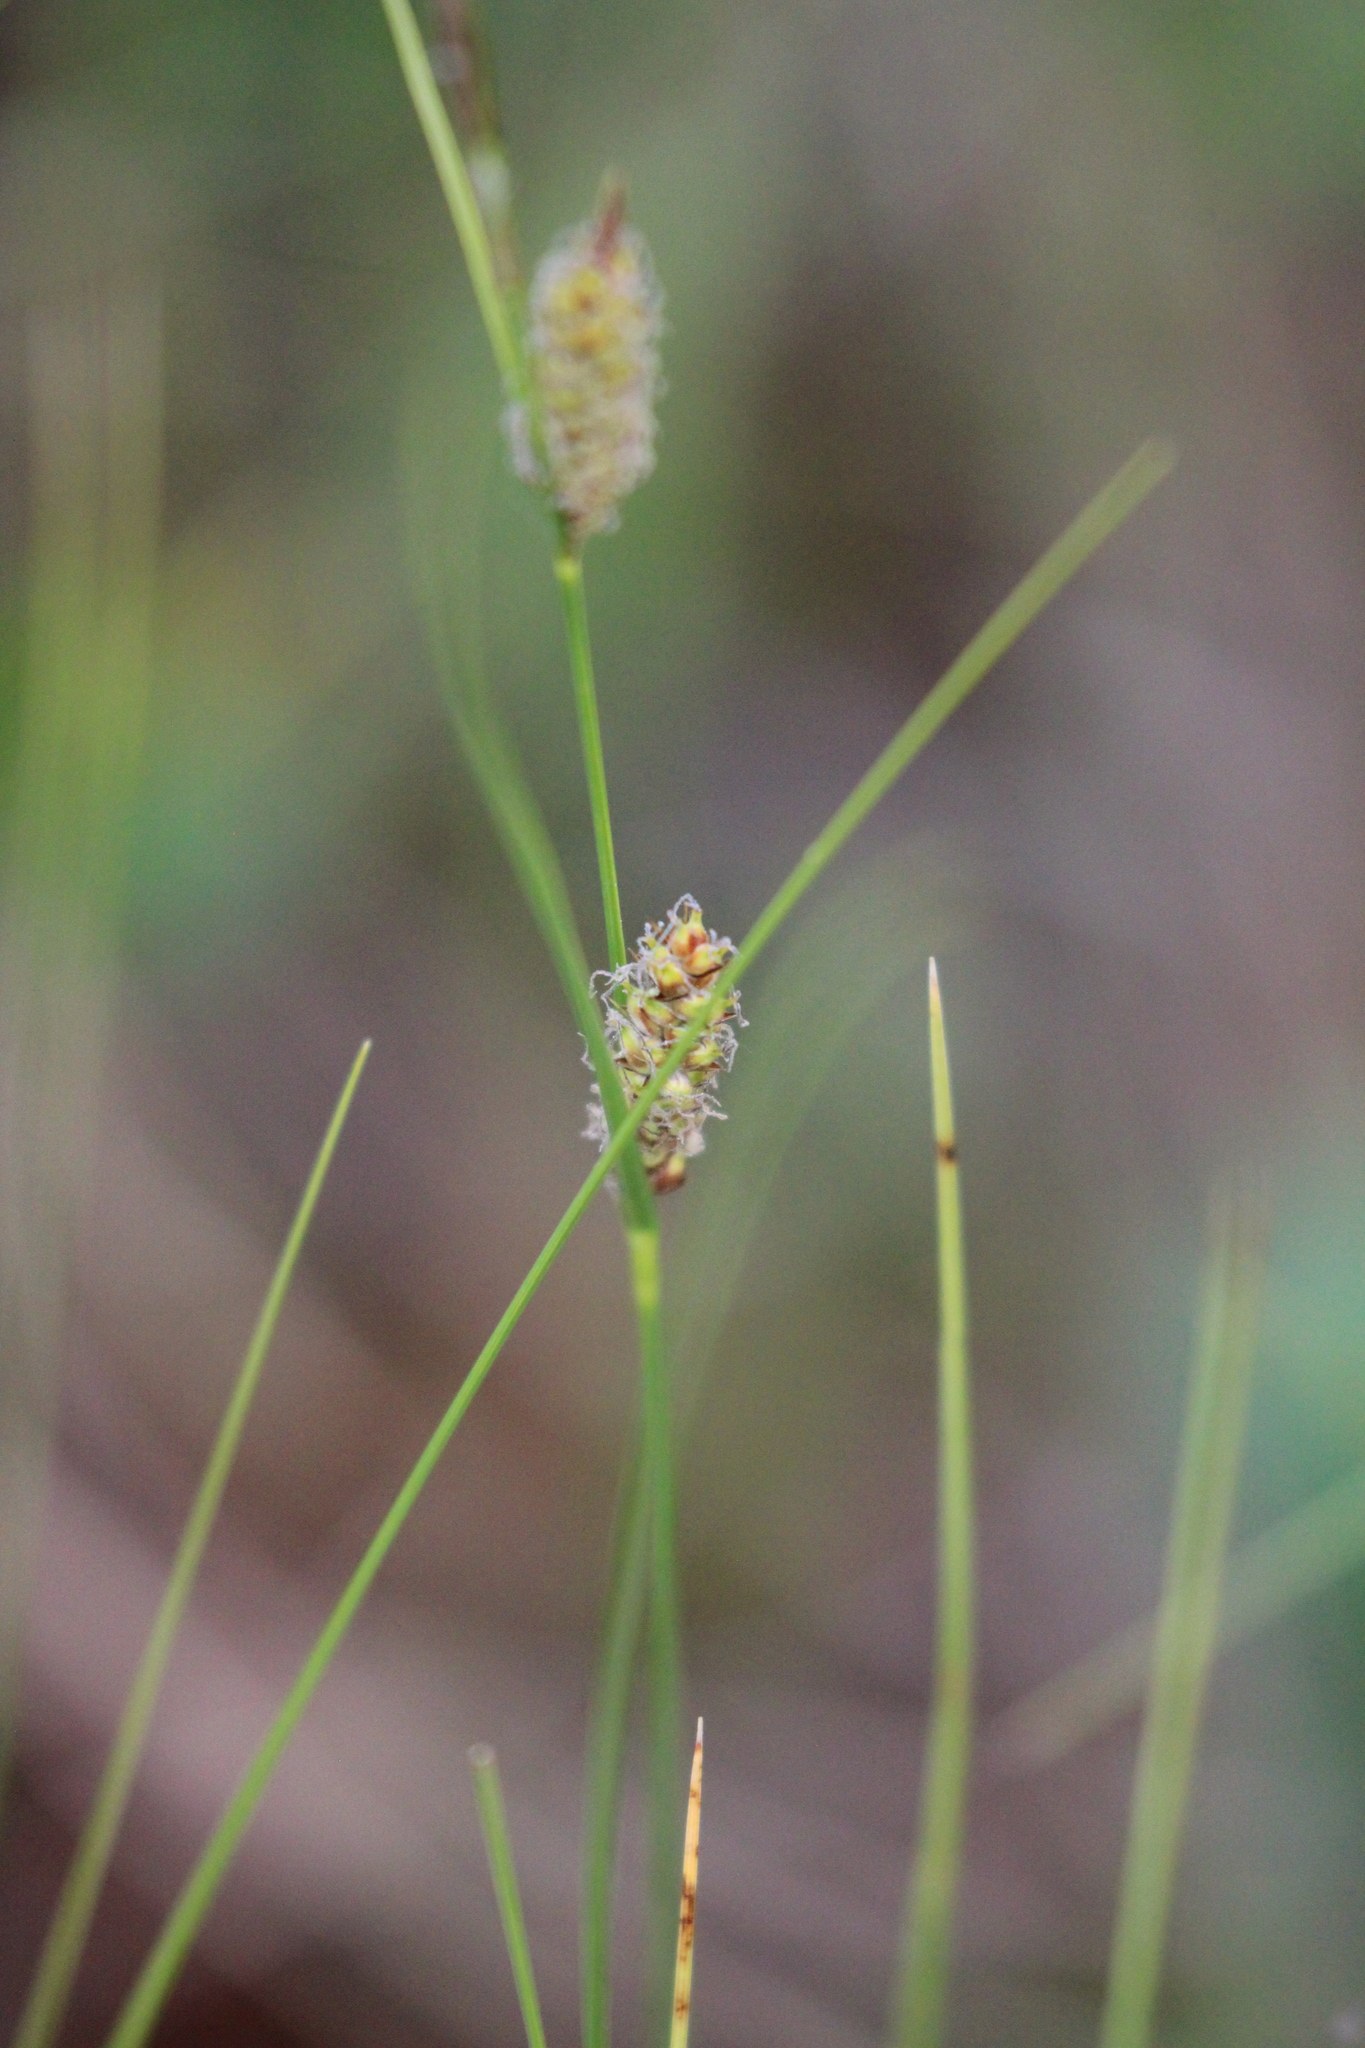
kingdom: Plantae
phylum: Tracheophyta
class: Liliopsida
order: Poales
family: Cyperaceae
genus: Carex
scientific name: Carex lasiocarpa
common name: Slender sedge
